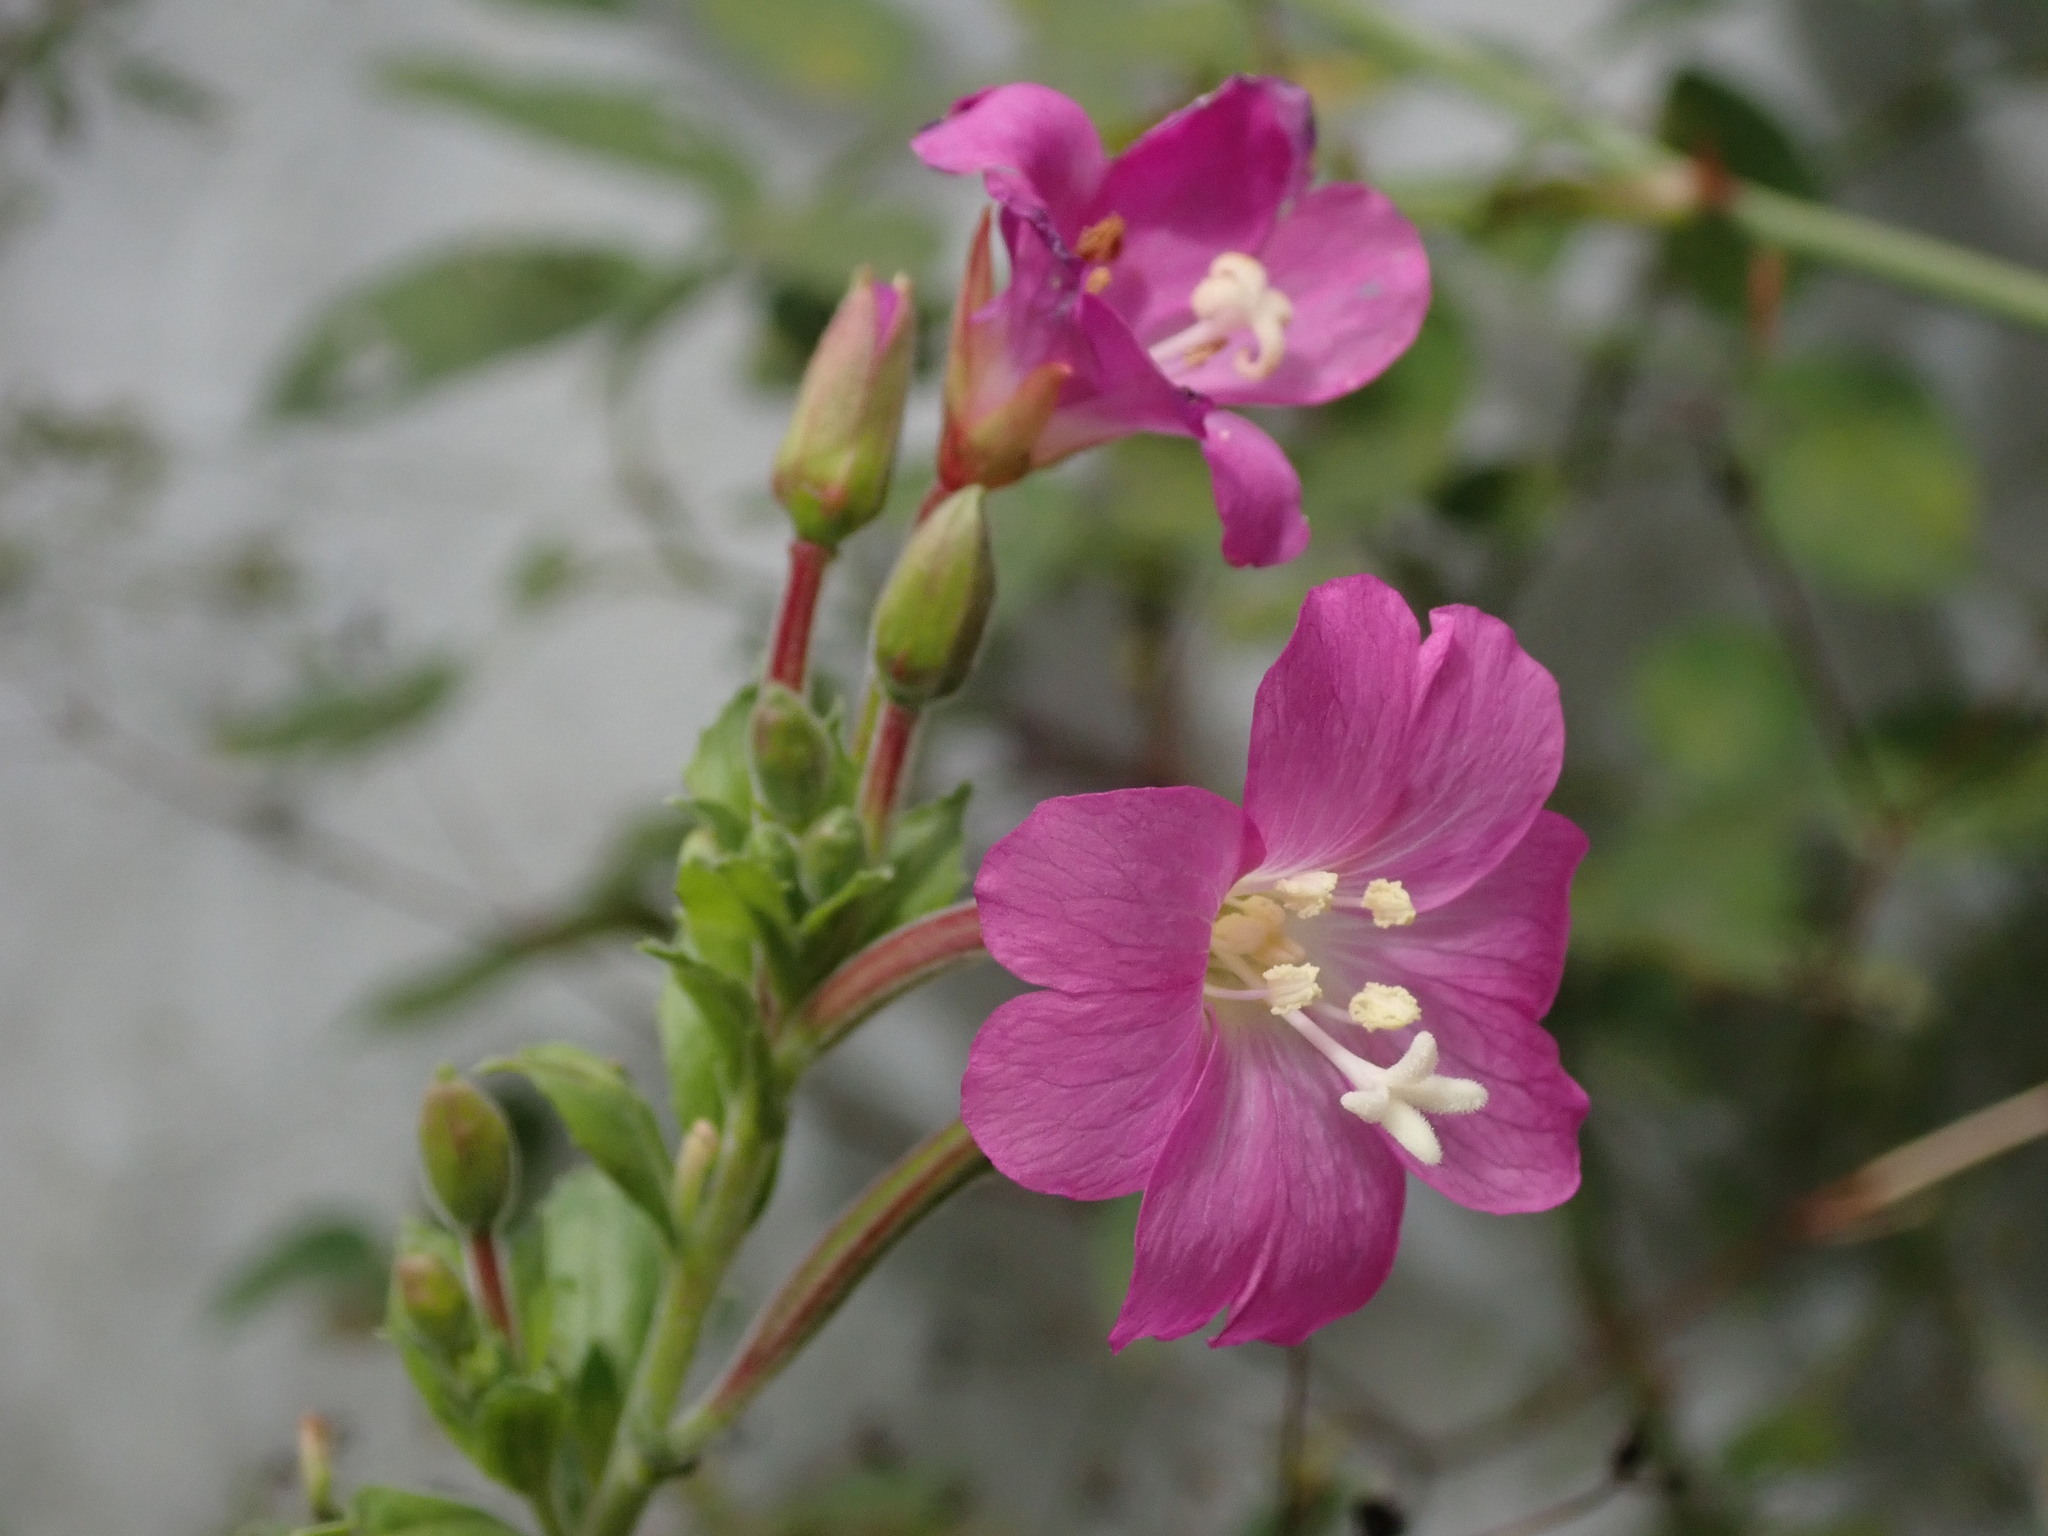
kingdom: Plantae
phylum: Tracheophyta
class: Magnoliopsida
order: Myrtales
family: Onagraceae
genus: Epilobium
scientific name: Epilobium hirsutum
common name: Great willowherb
